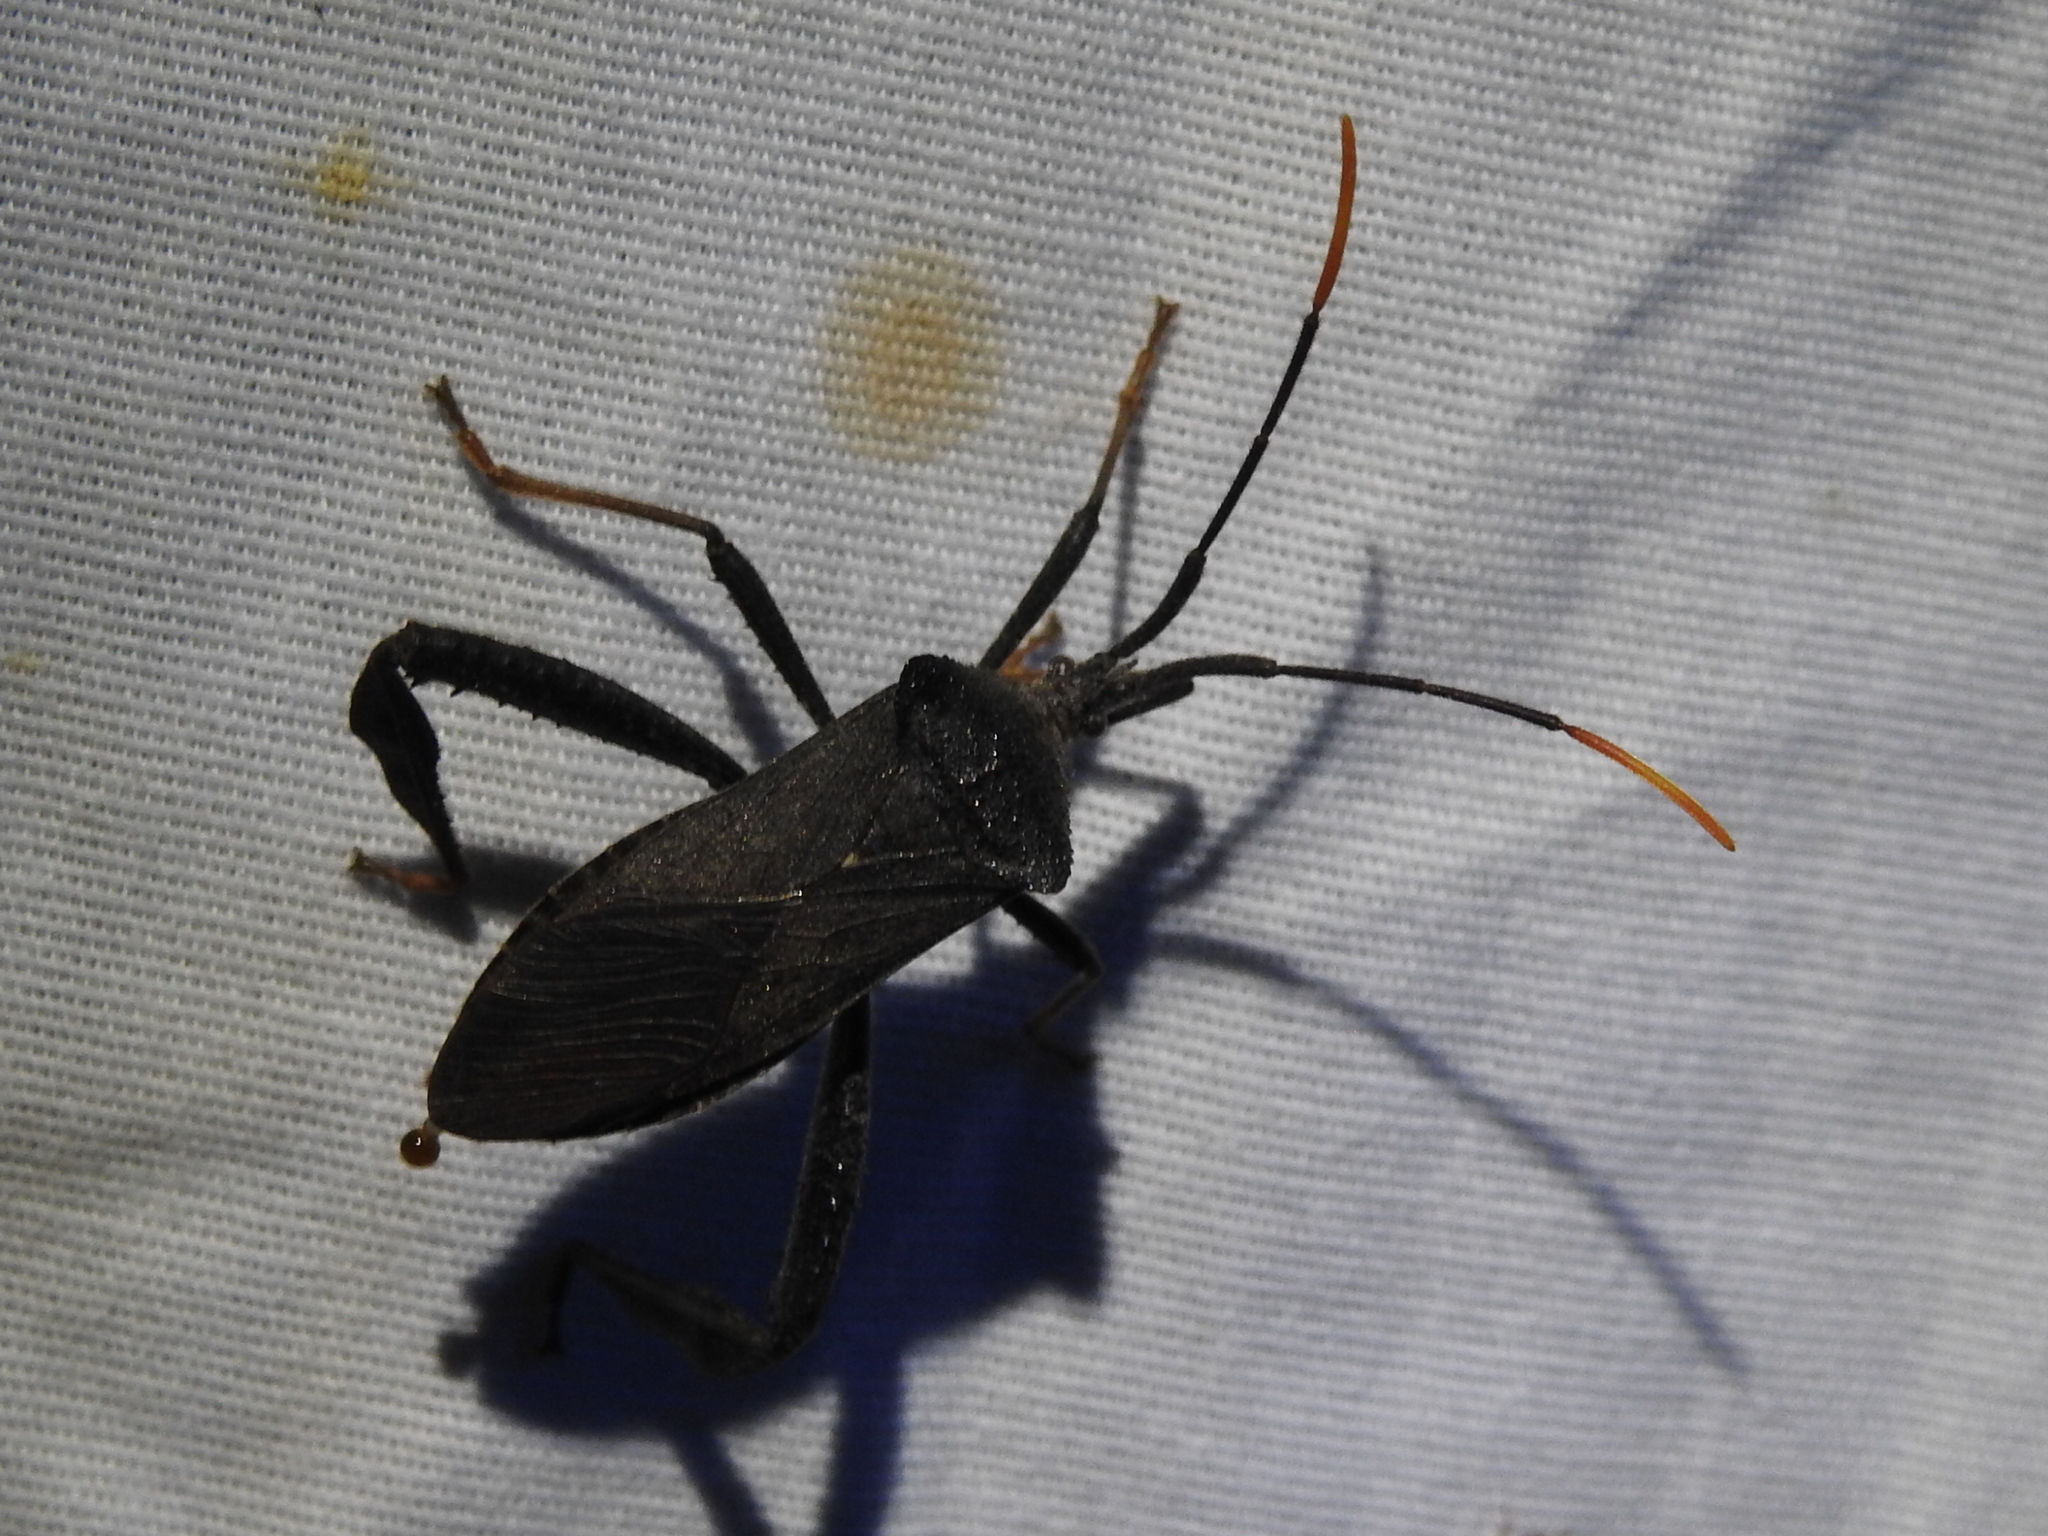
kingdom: Animalia
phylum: Arthropoda
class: Insecta
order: Hemiptera
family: Coreidae
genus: Acanthocephala
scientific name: Acanthocephala terminalis
